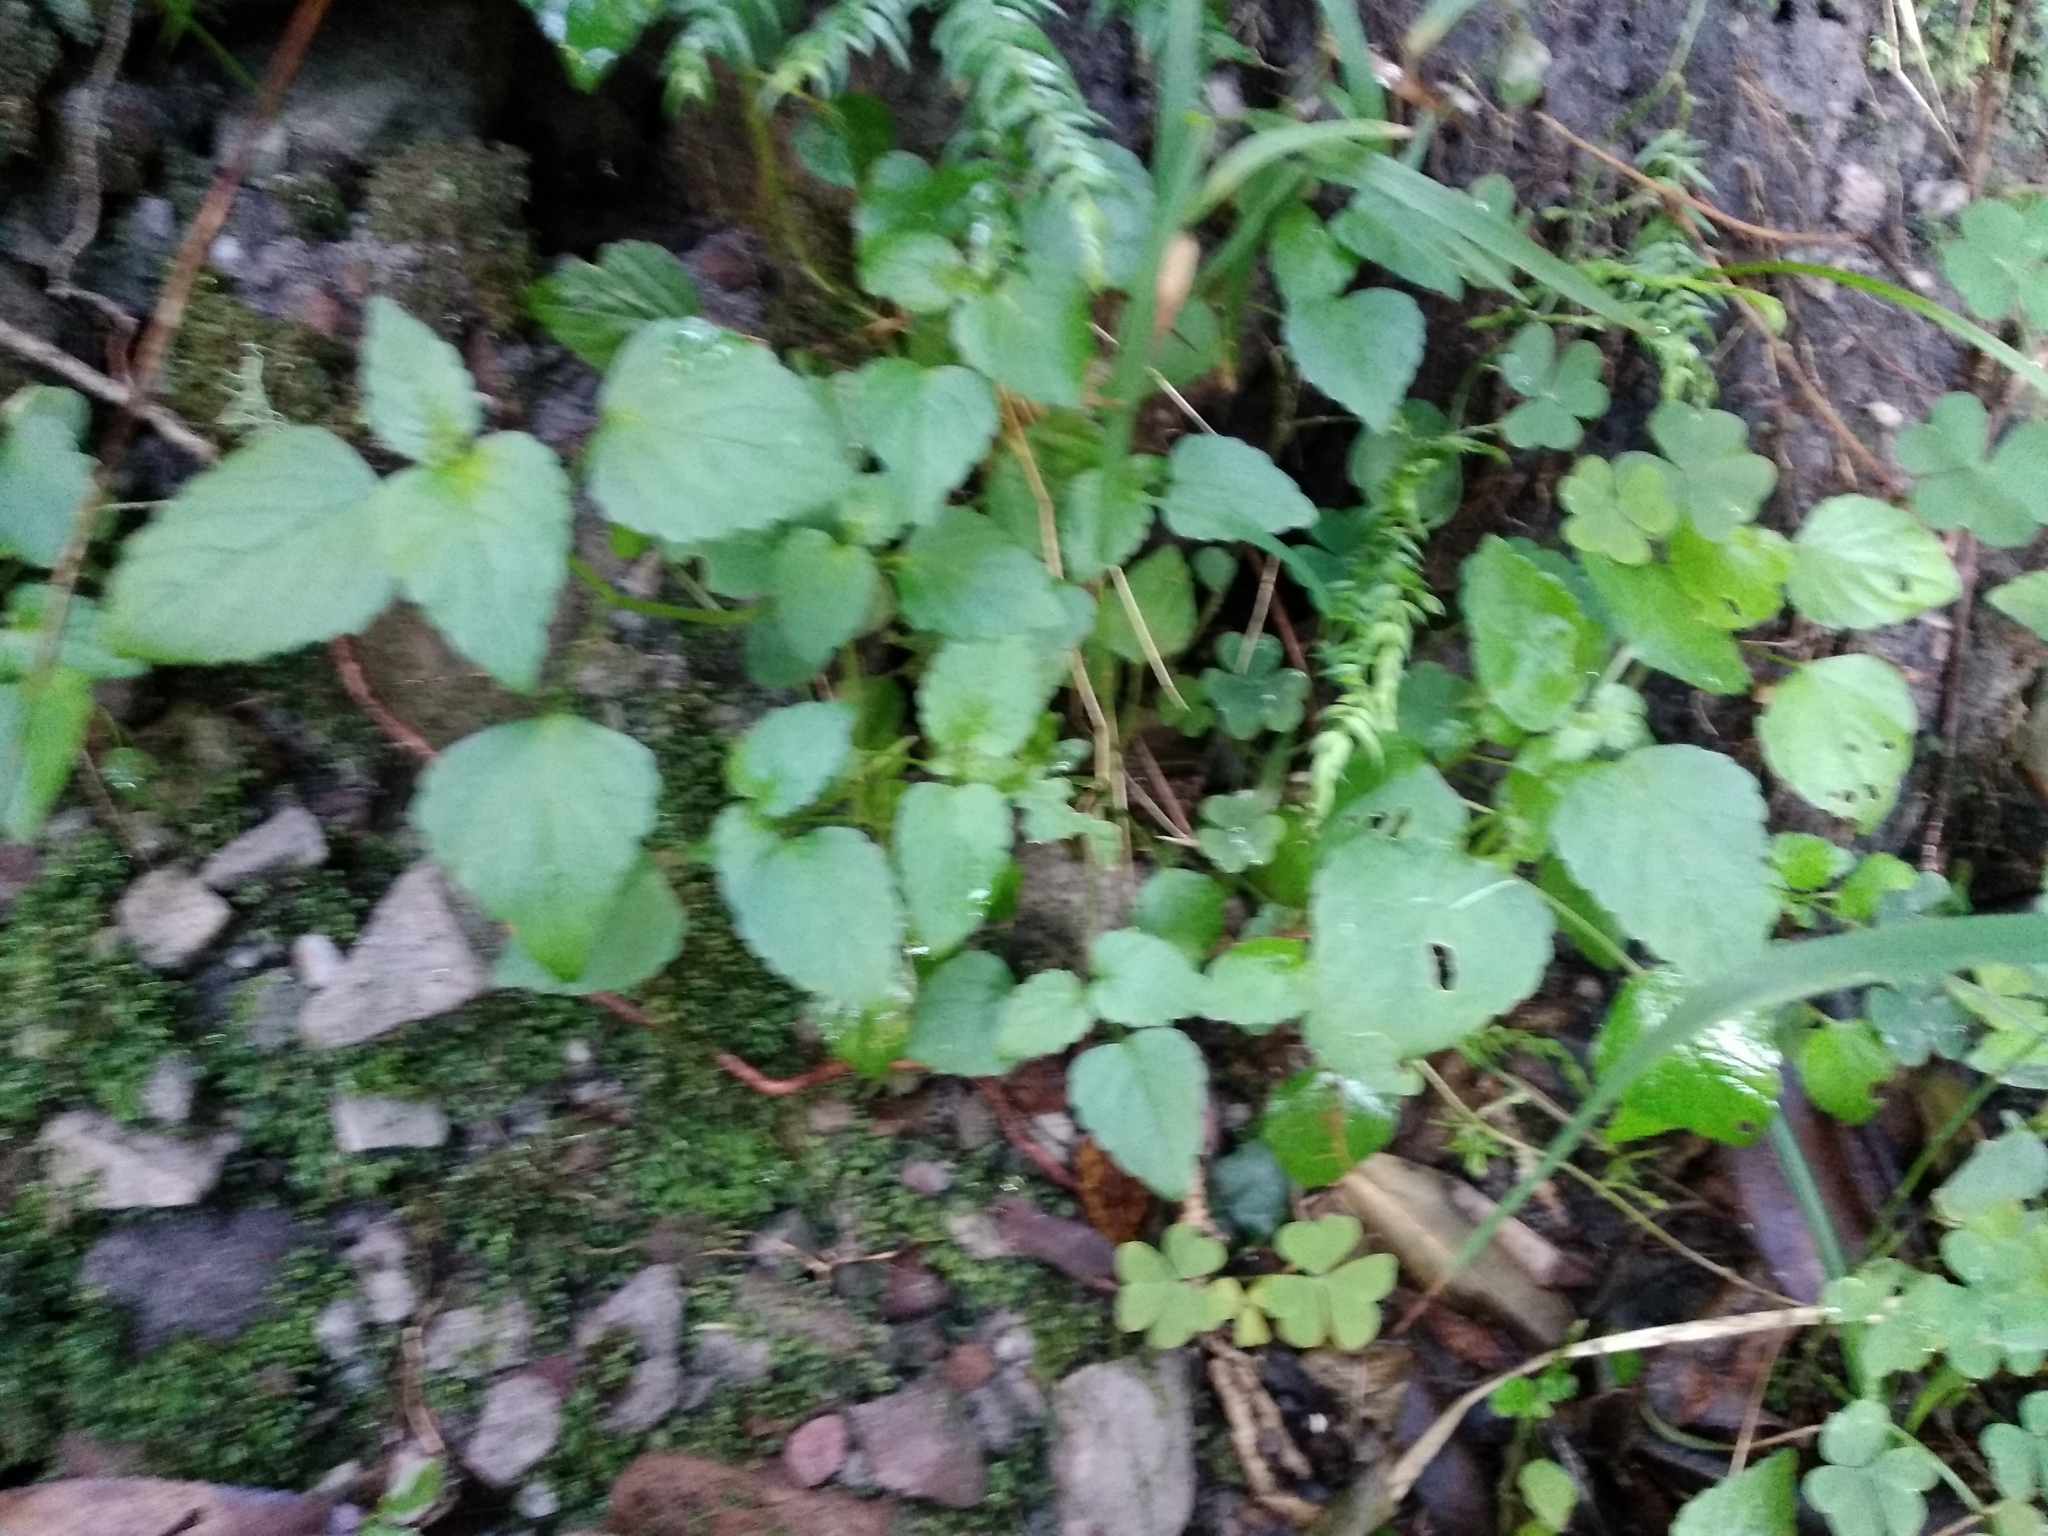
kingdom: Plantae
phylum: Tracheophyta
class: Magnoliopsida
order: Malpighiales
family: Euphorbiaceae
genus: Leidesia
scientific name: Leidesia procumbens
